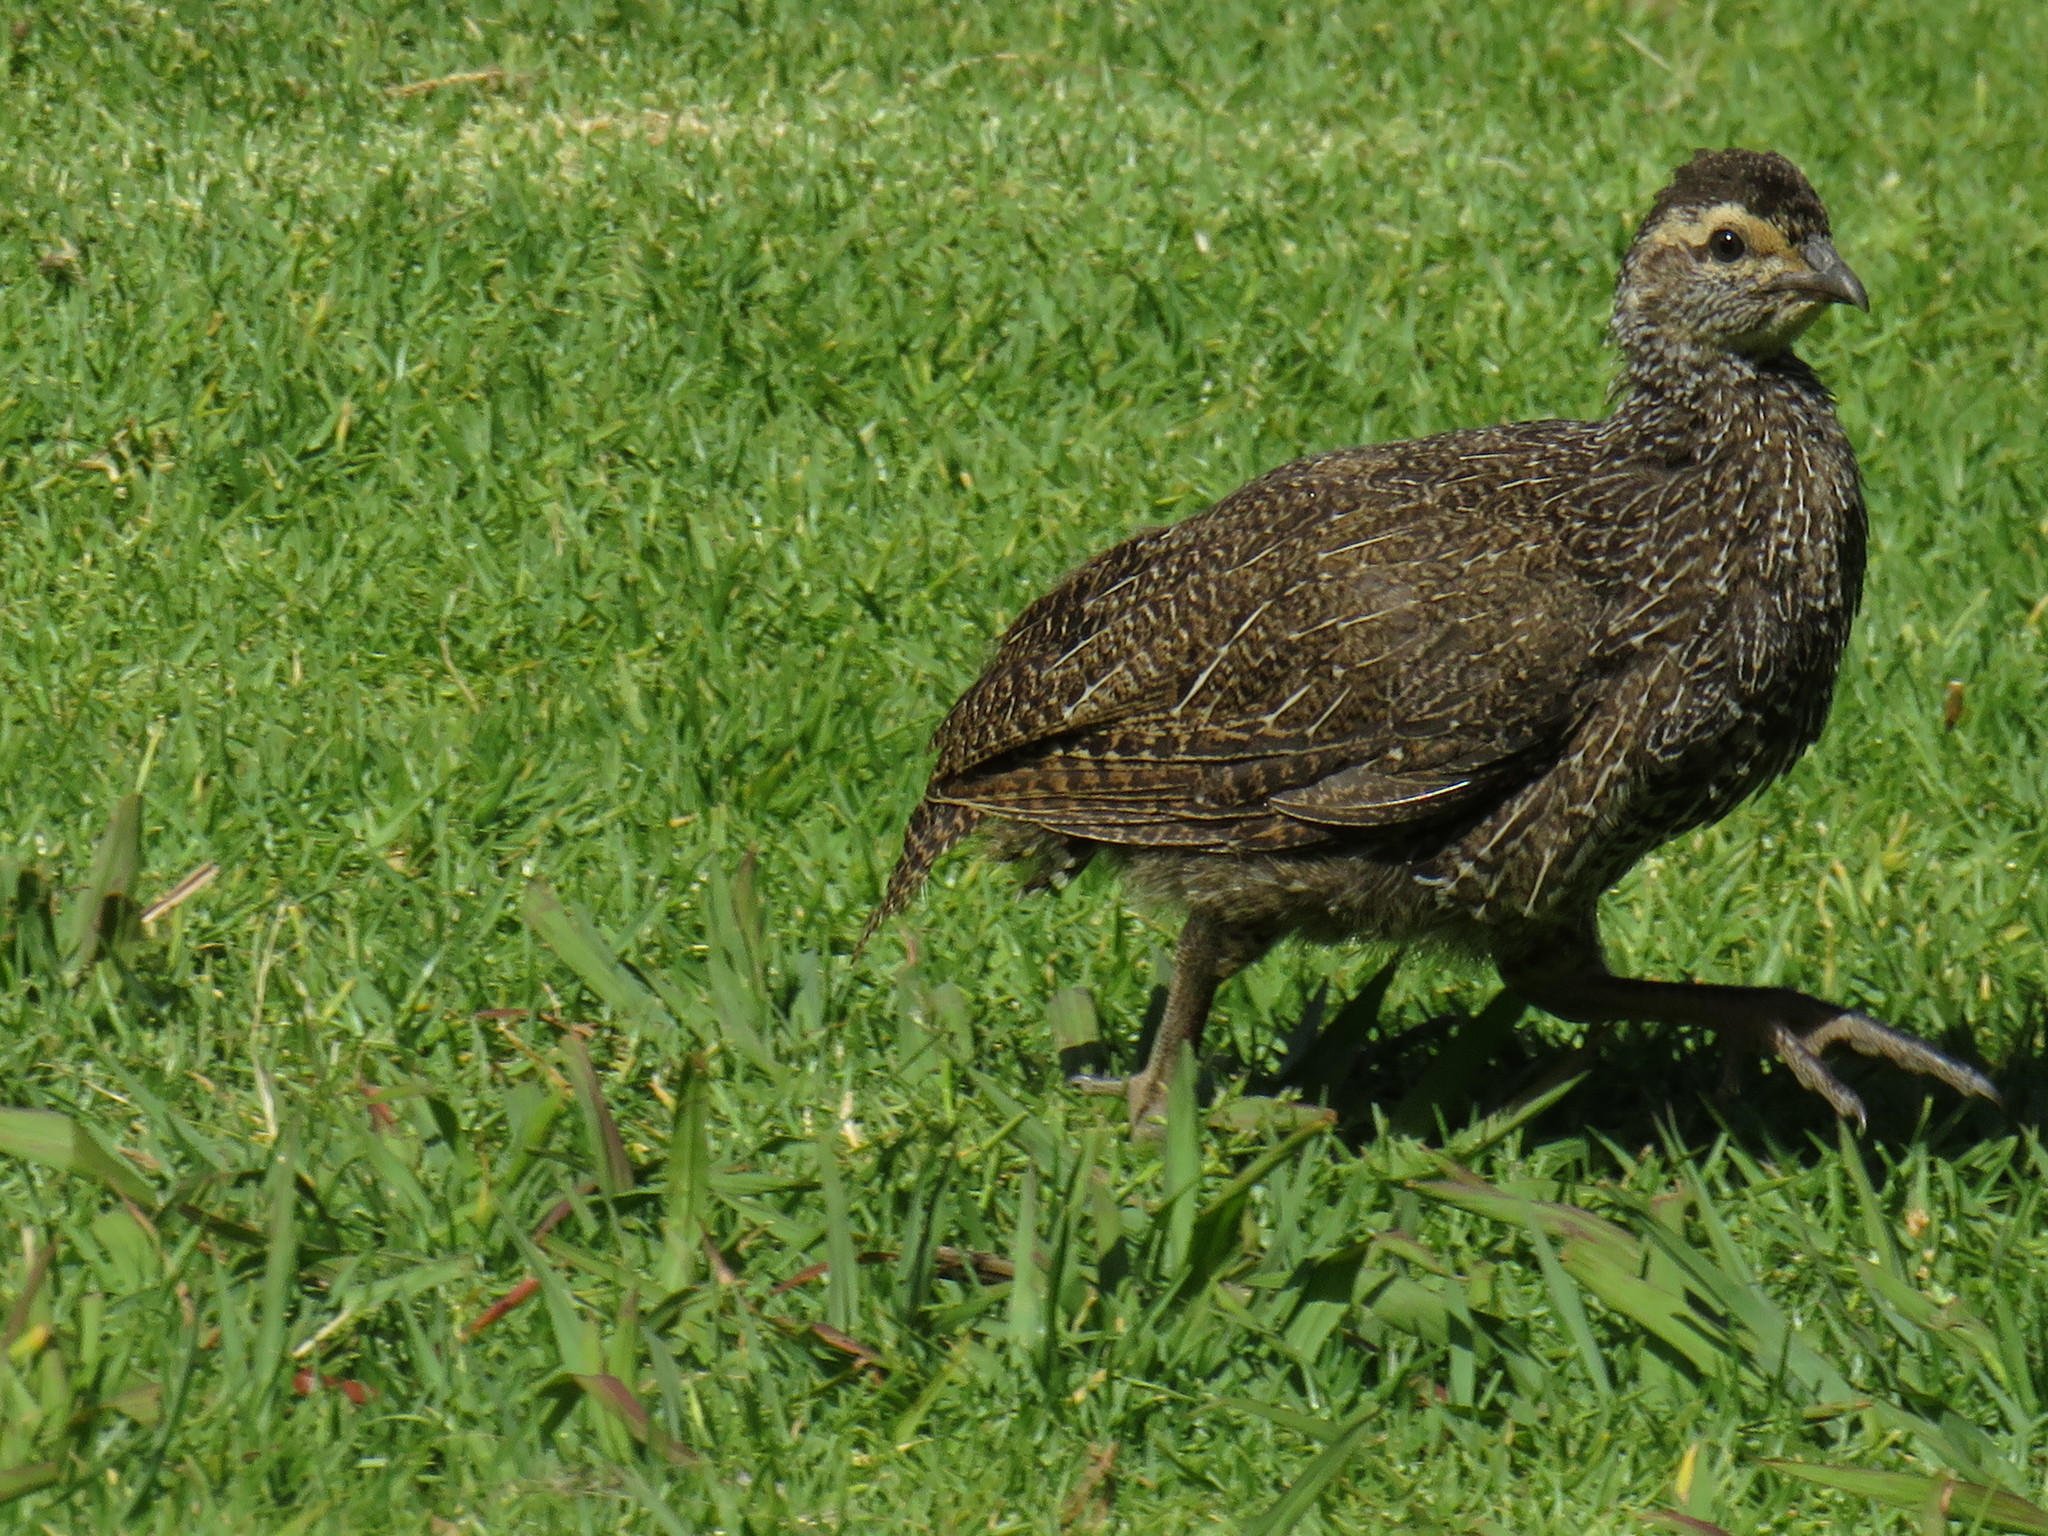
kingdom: Animalia
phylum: Chordata
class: Aves
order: Galliformes
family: Phasianidae
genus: Pternistis
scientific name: Pternistis capensis
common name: Cape spurfowl
